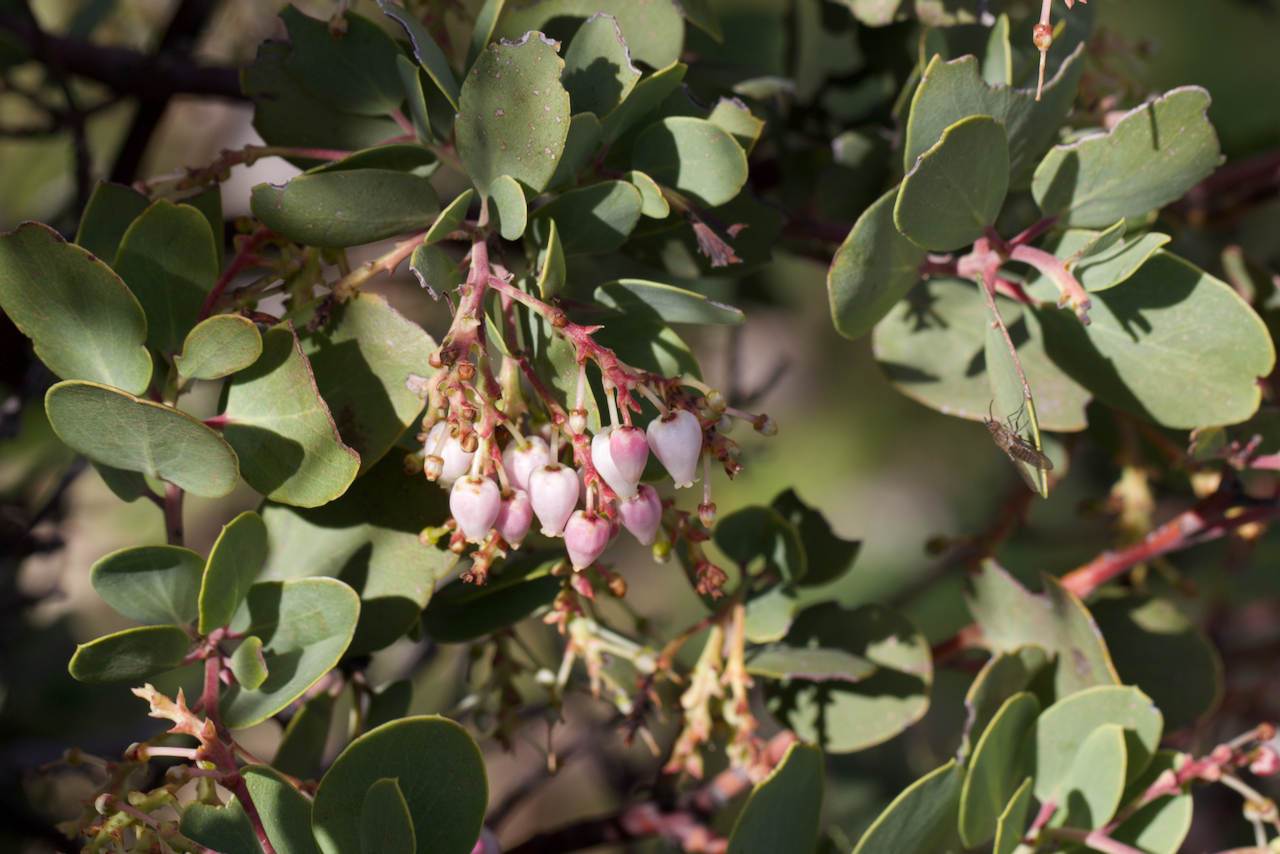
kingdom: Plantae
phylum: Tracheophyta
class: Magnoliopsida
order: Ericales
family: Ericaceae
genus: Arctostaphylos
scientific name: Arctostaphylos glauca
